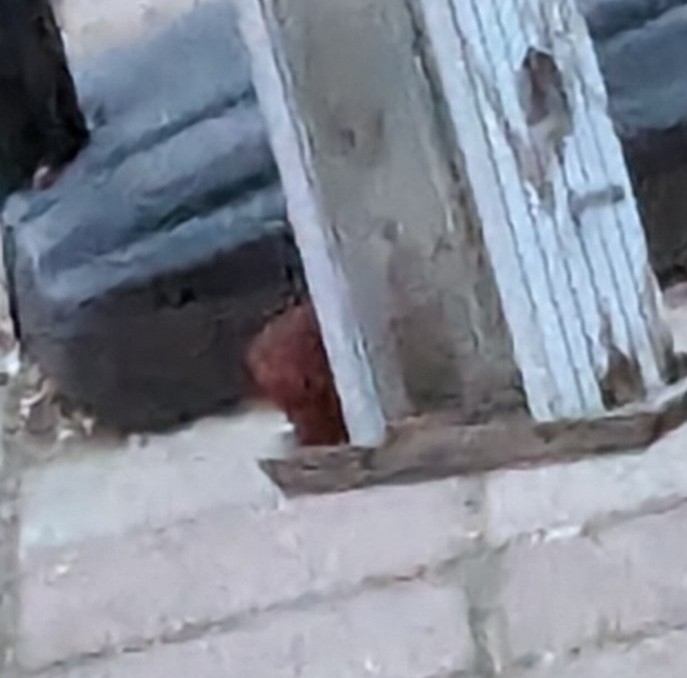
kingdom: Animalia
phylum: Chordata
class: Aves
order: Passeriformes
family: Cardinalidae
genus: Cardinalis
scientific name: Cardinalis cardinalis
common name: Northern cardinal
